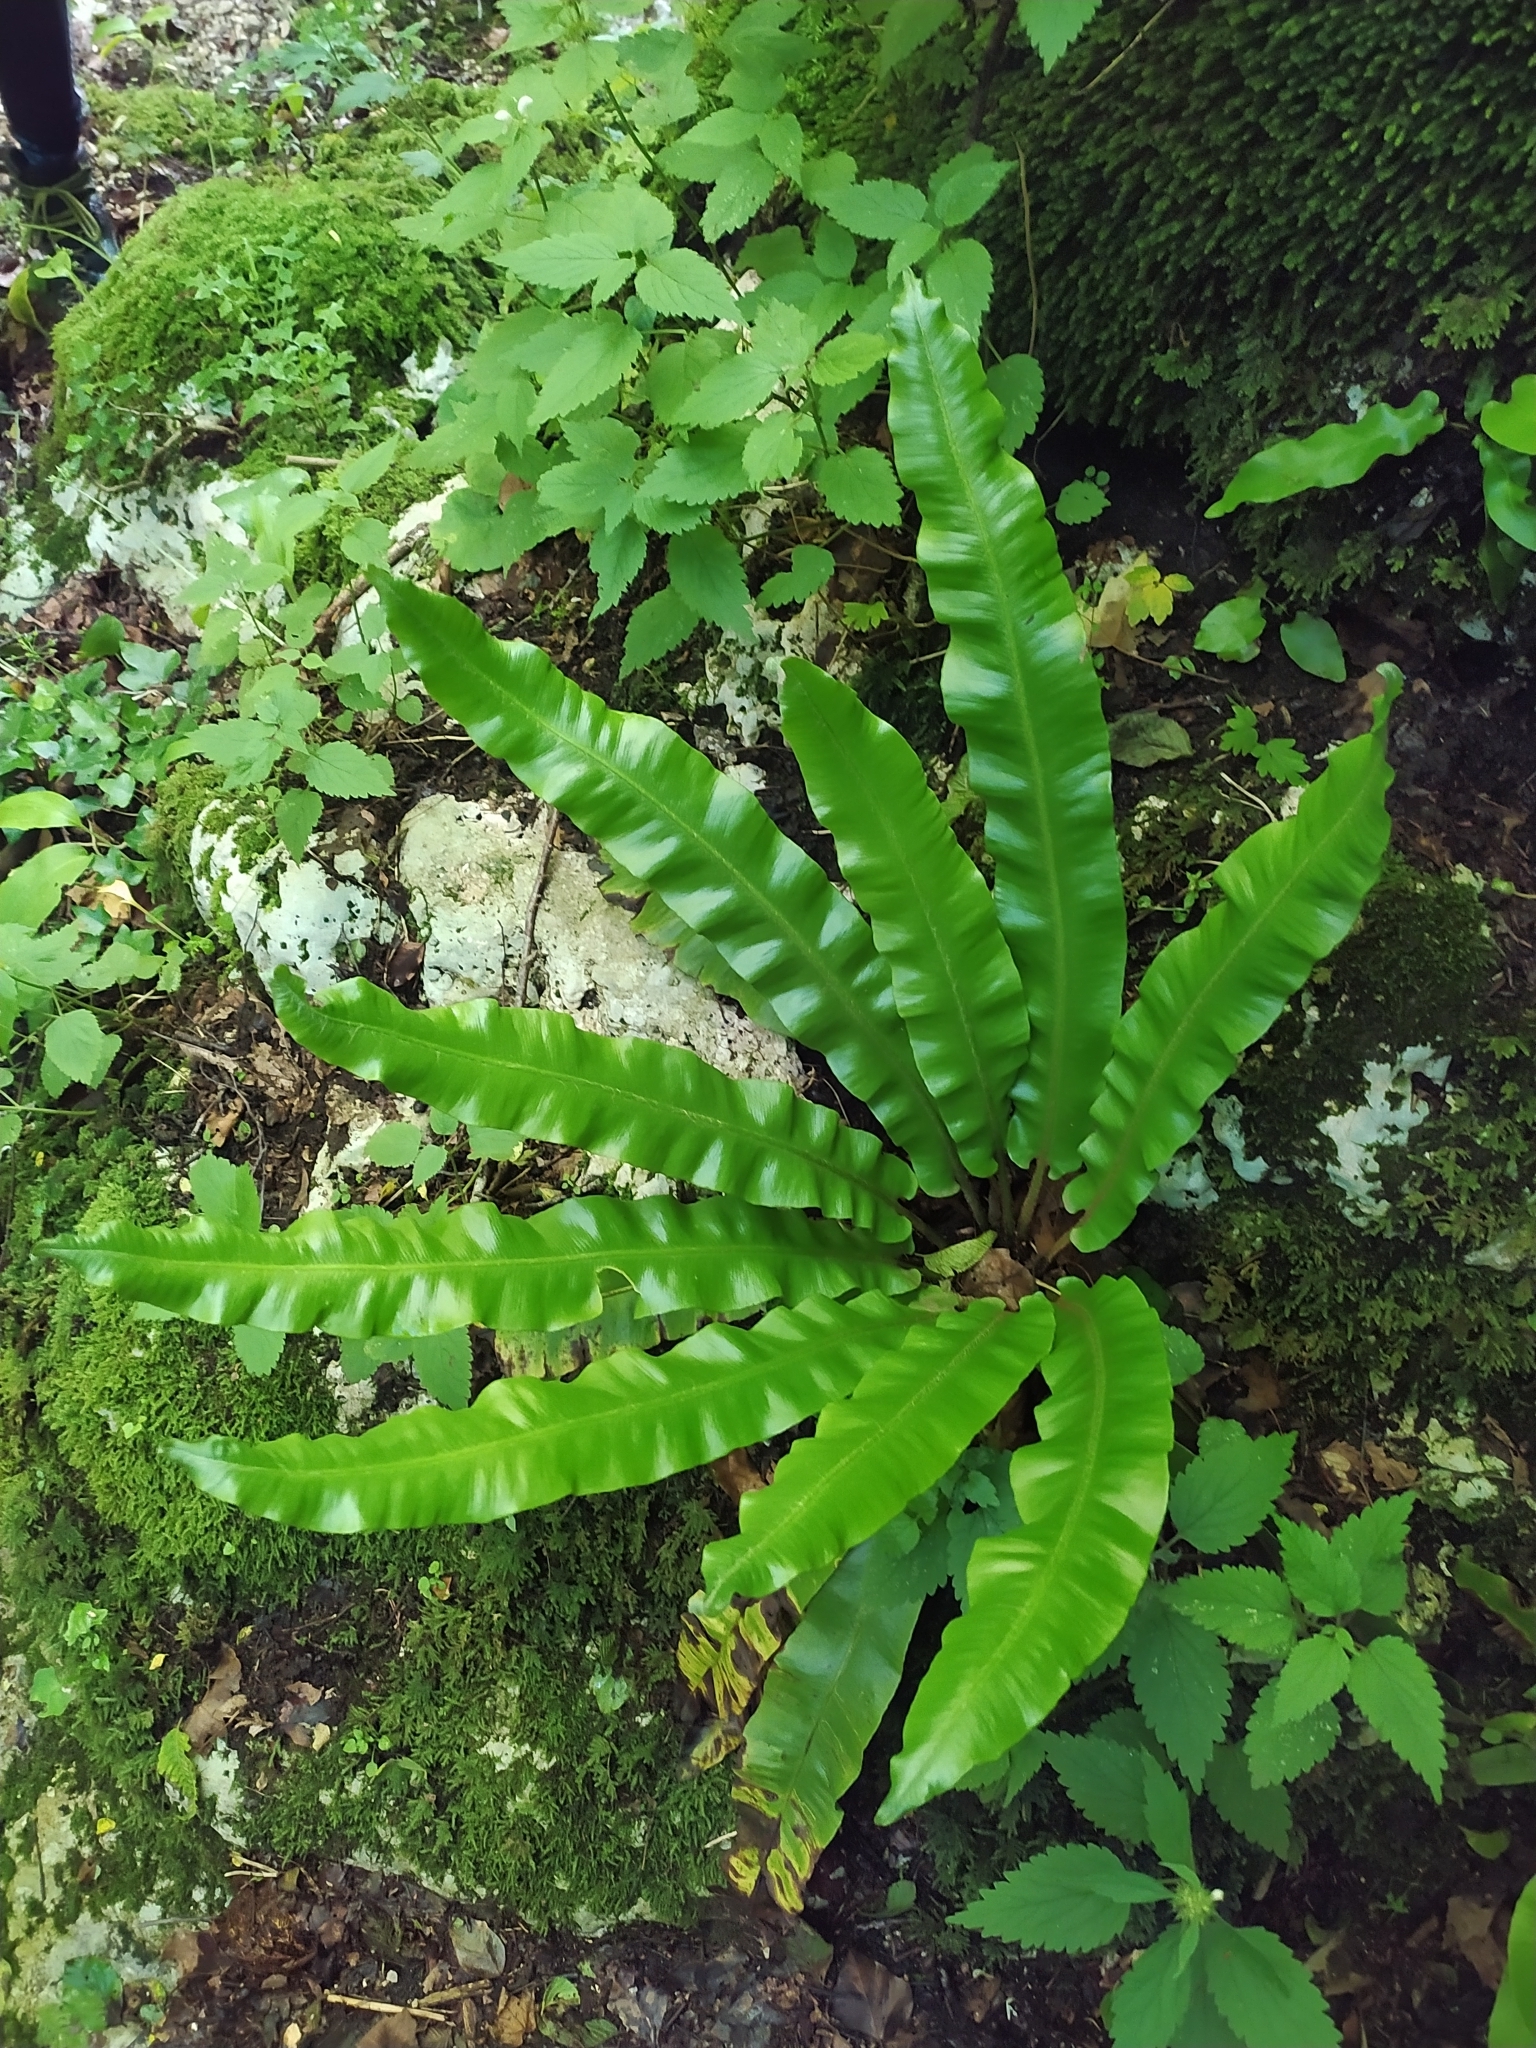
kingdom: Plantae
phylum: Tracheophyta
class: Polypodiopsida
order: Polypodiales
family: Aspleniaceae
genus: Asplenium
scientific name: Asplenium scolopendrium
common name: Hart's-tongue fern
